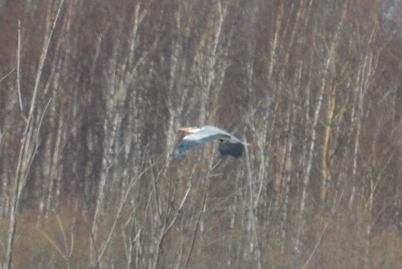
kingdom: Animalia
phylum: Chordata
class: Aves
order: Pelecaniformes
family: Ardeidae
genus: Ardea
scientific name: Ardea cinerea
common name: Grey heron
